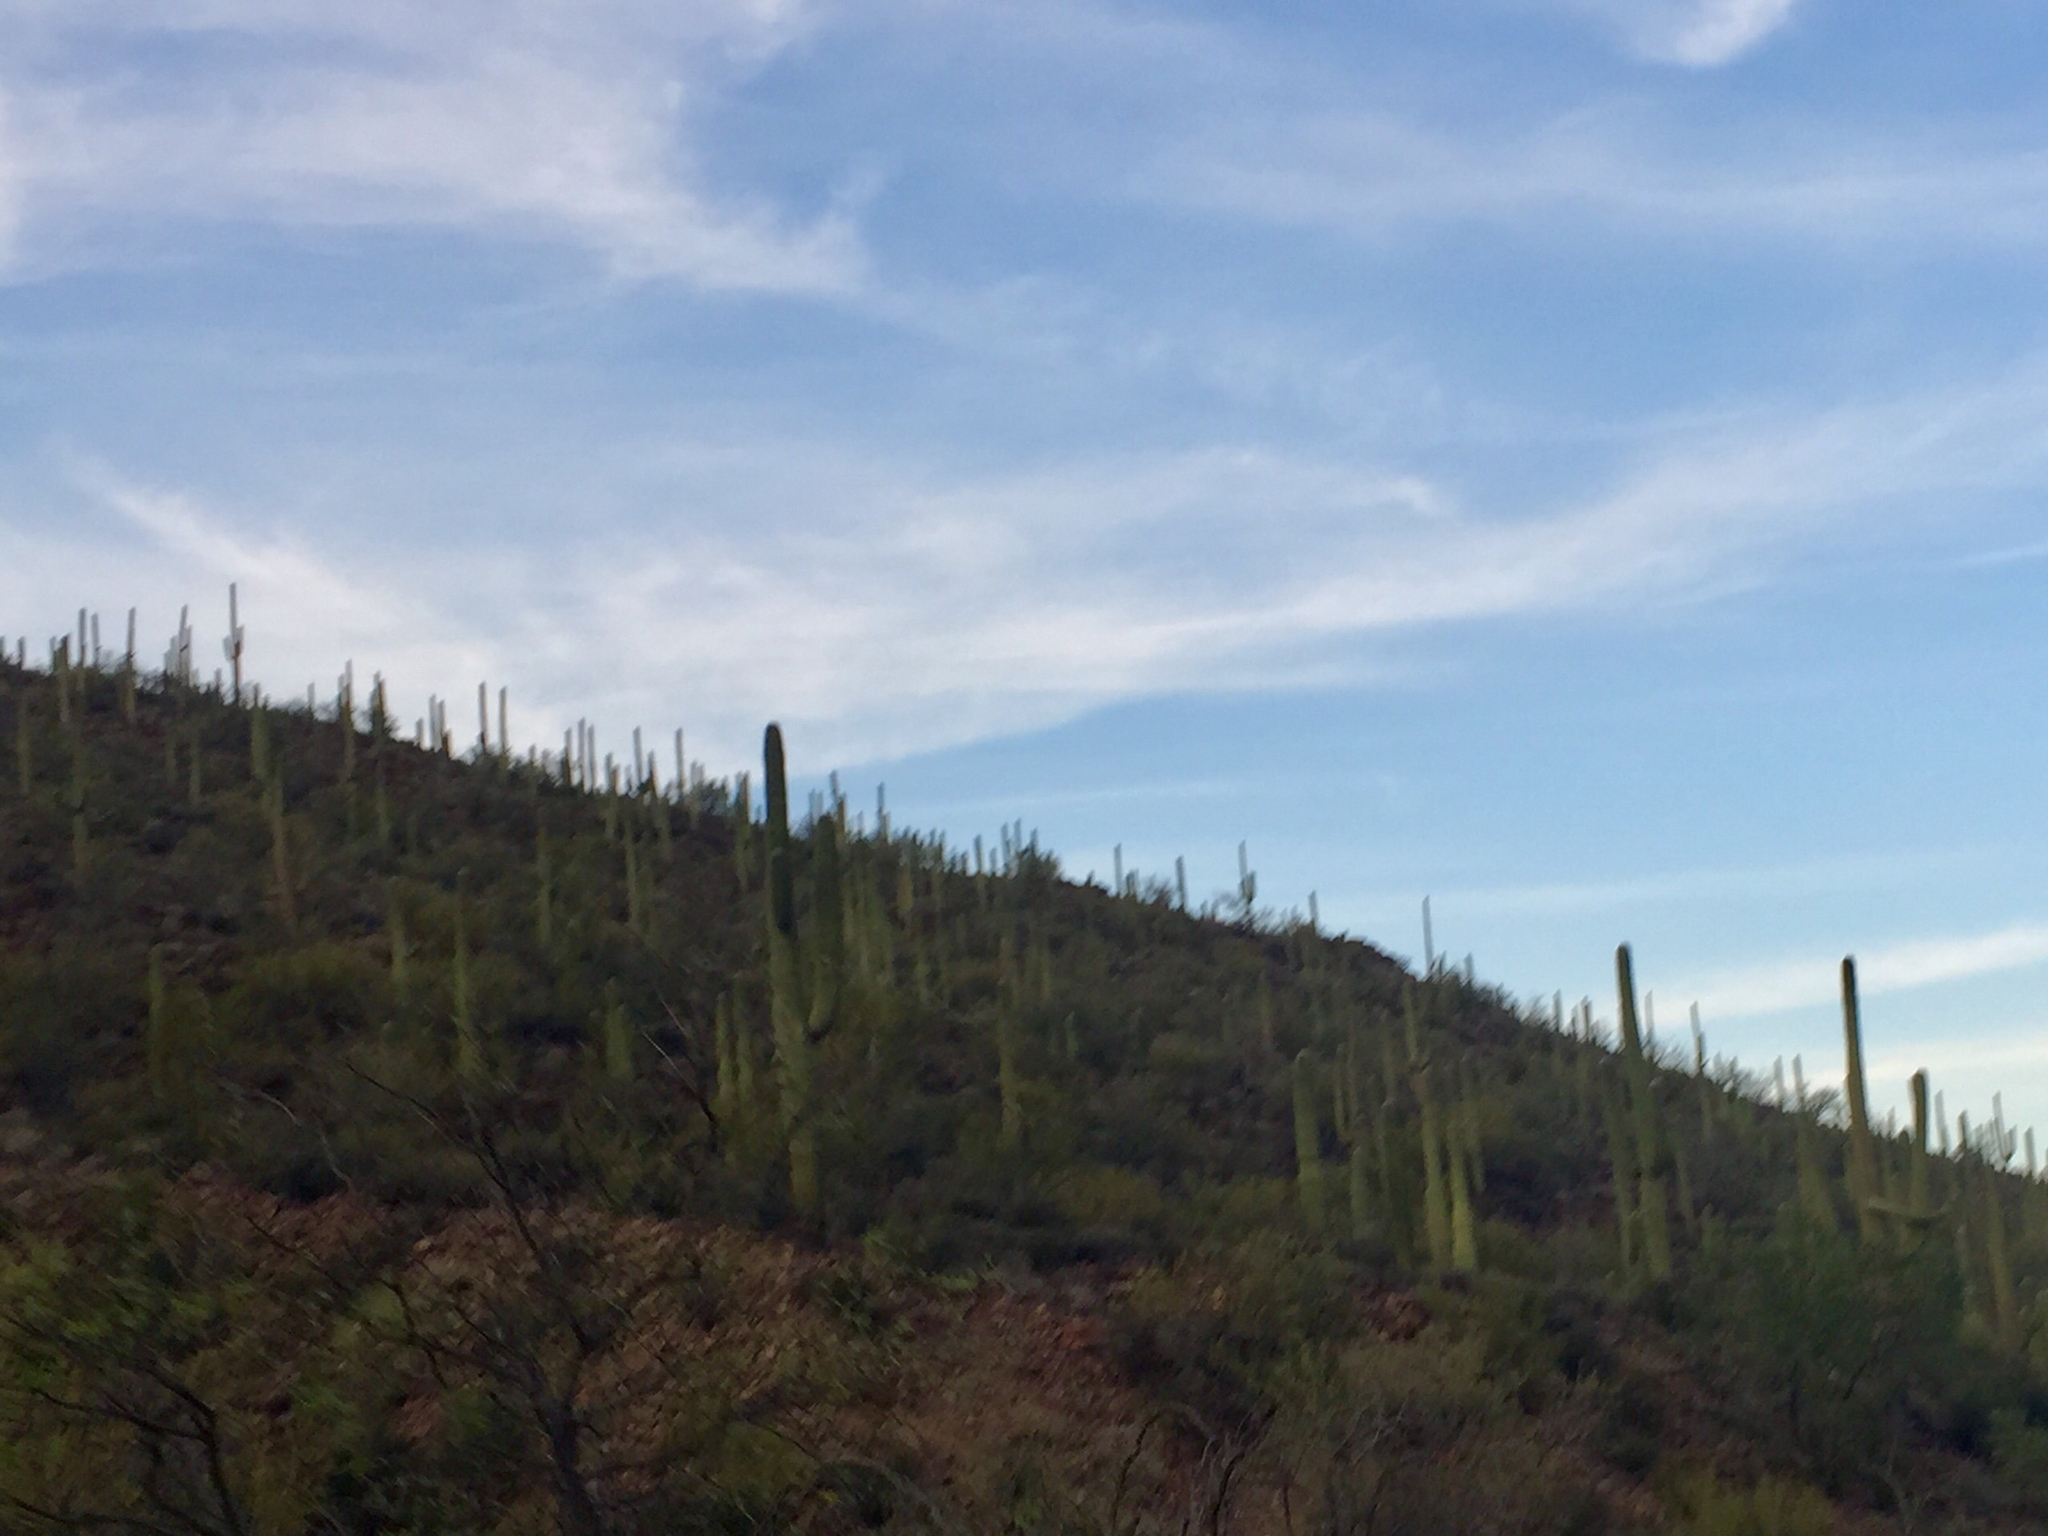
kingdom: Plantae
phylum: Tracheophyta
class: Magnoliopsida
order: Caryophyllales
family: Cactaceae
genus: Carnegiea
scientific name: Carnegiea gigantea
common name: Saguaro
